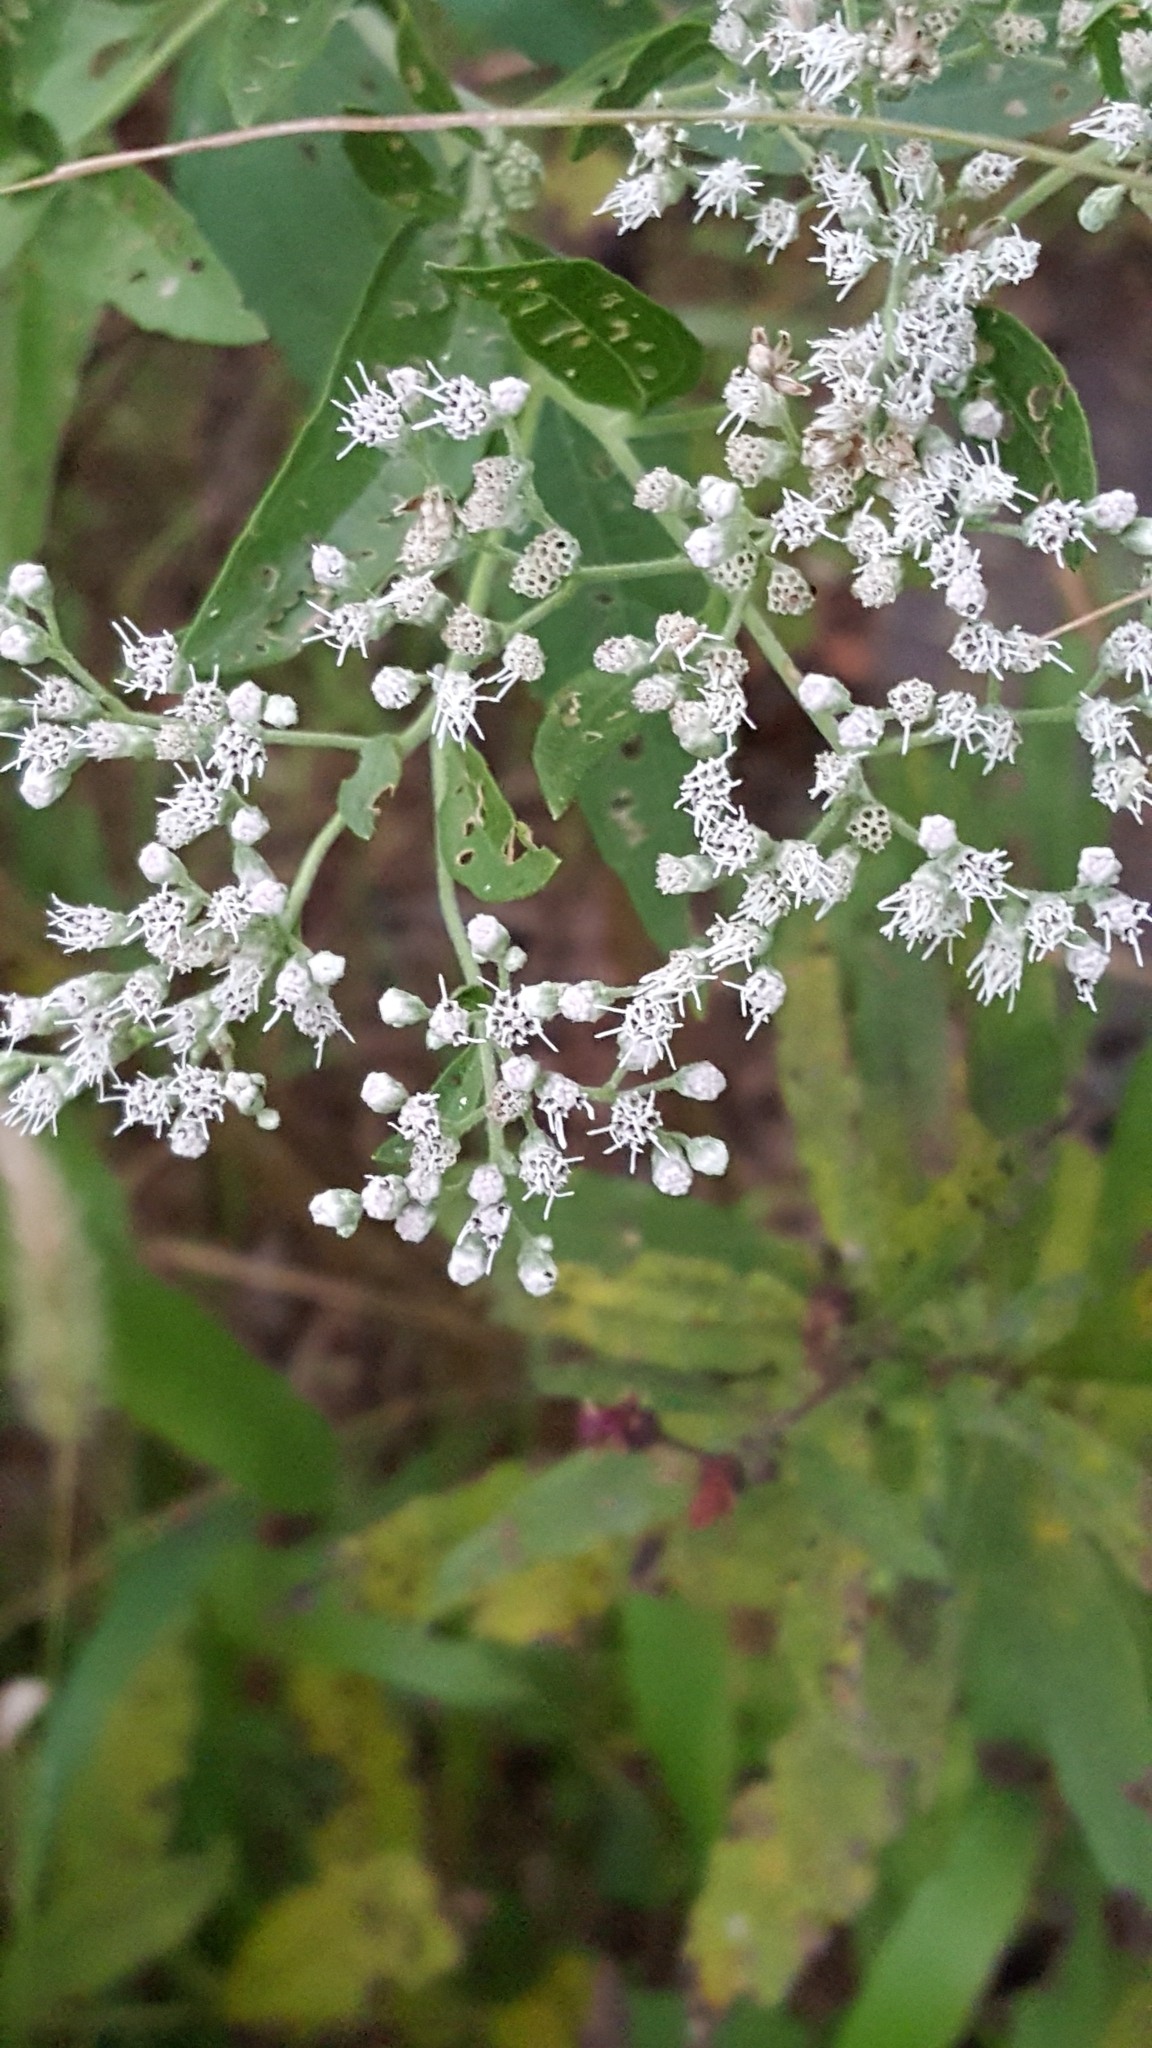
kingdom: Plantae
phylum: Tracheophyta
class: Magnoliopsida
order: Asterales
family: Asteraceae
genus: Eupatorium
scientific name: Eupatorium serotinum
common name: Late boneset
